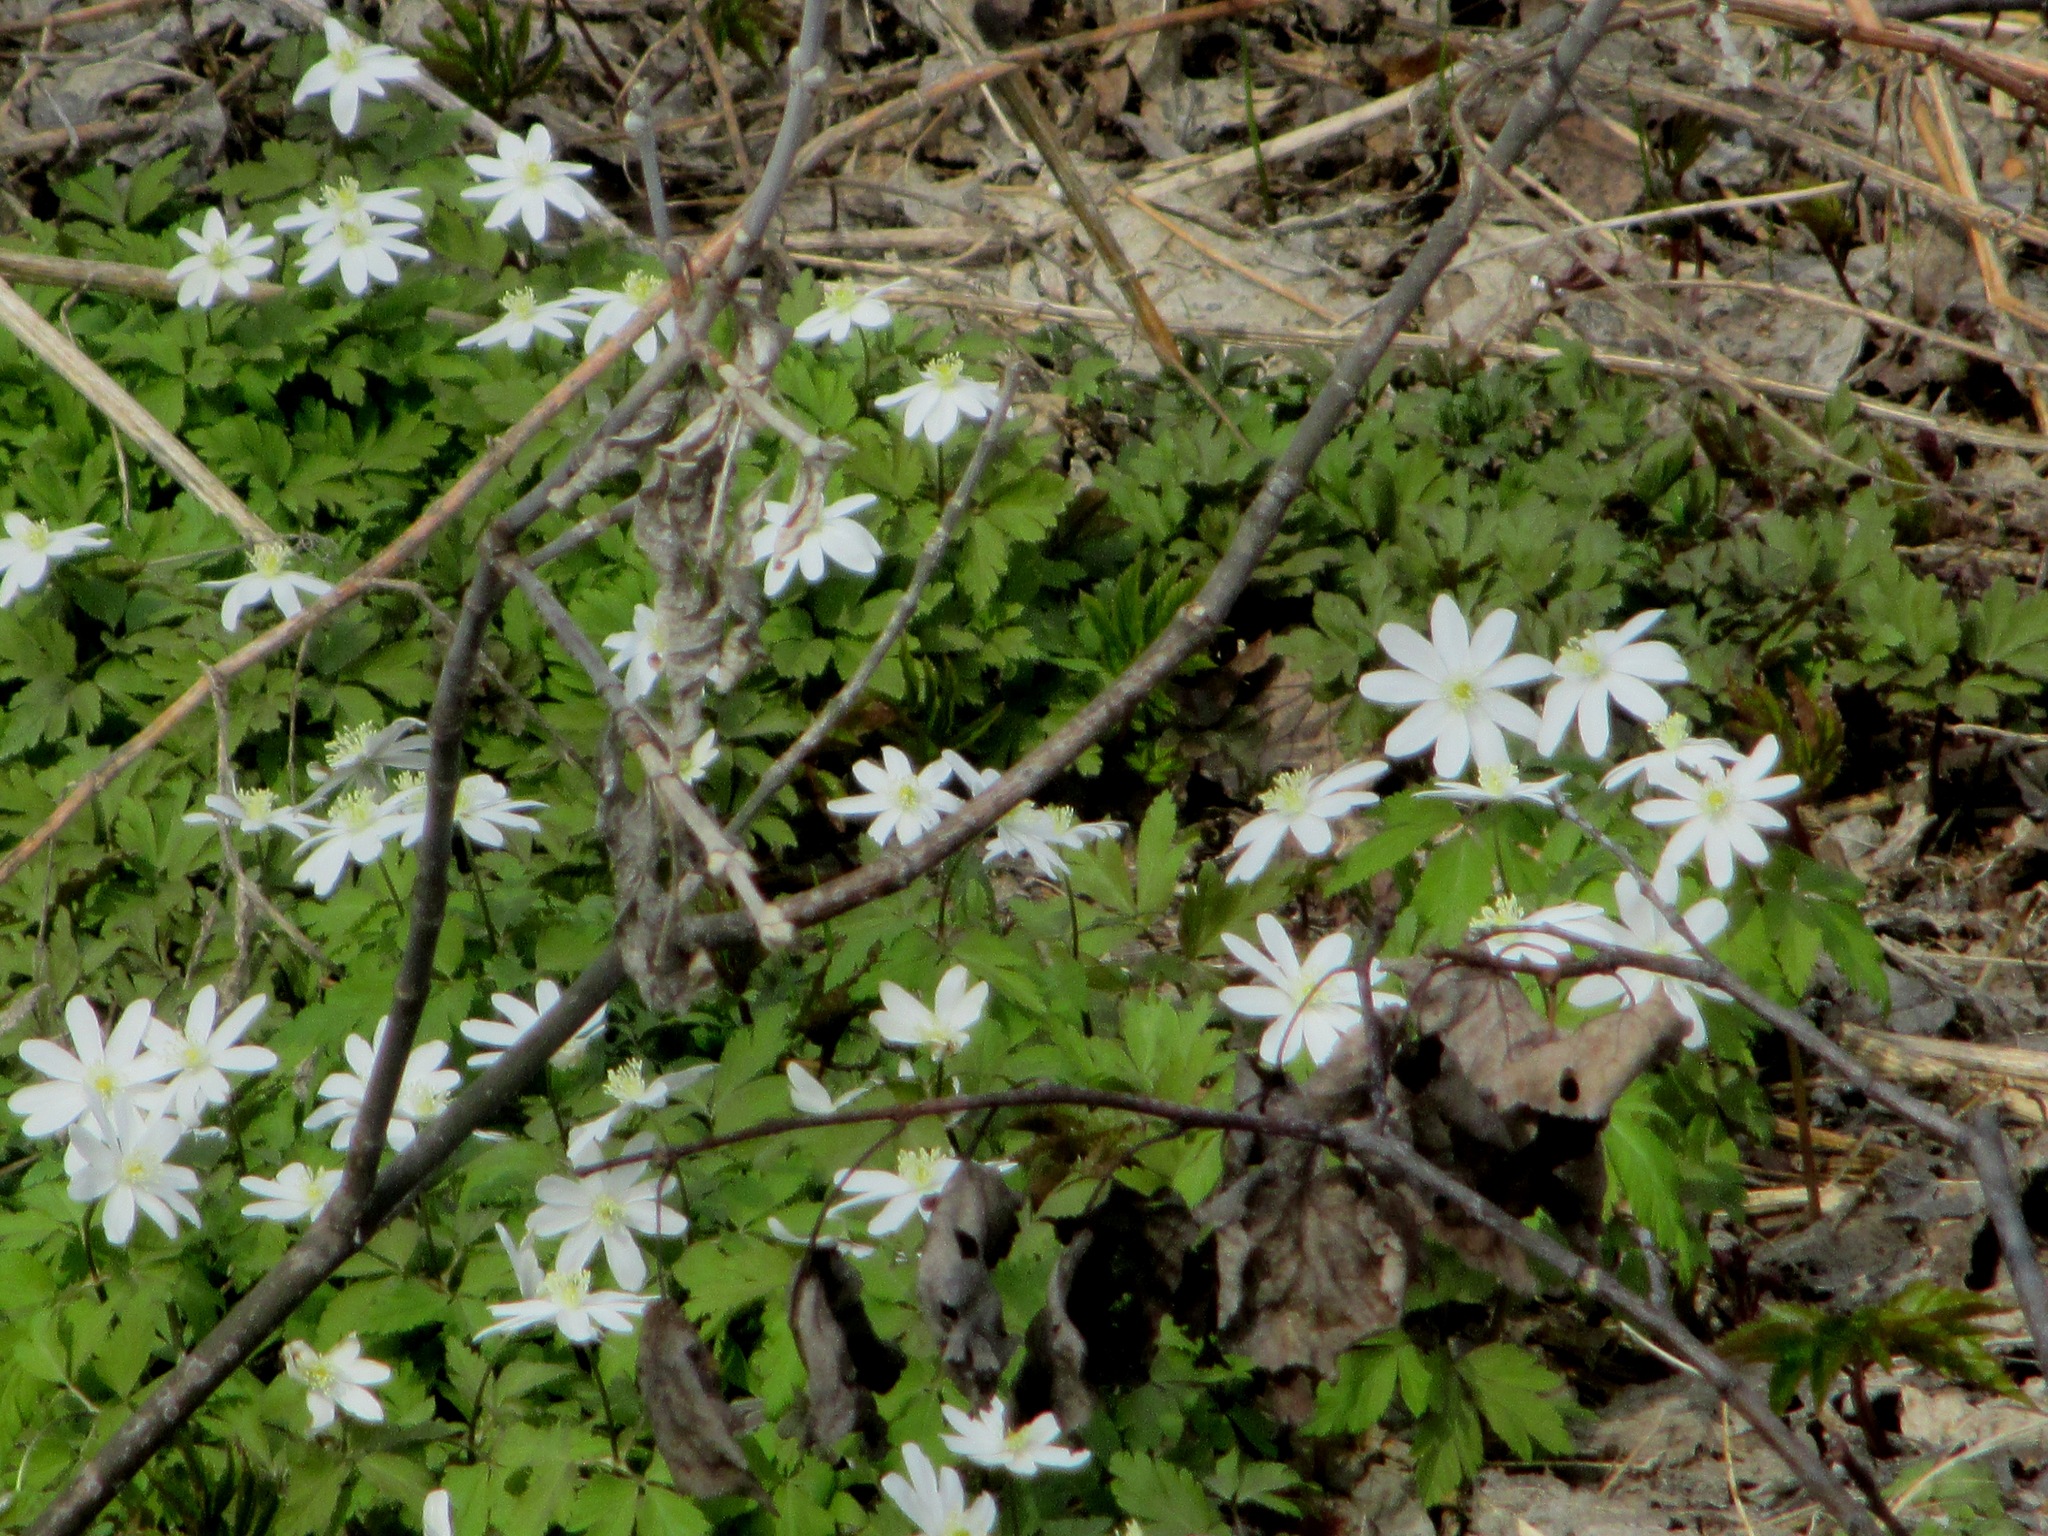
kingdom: Plantae
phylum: Tracheophyta
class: Magnoliopsida
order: Ranunculales
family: Ranunculaceae
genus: Anemone
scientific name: Anemone altaica
